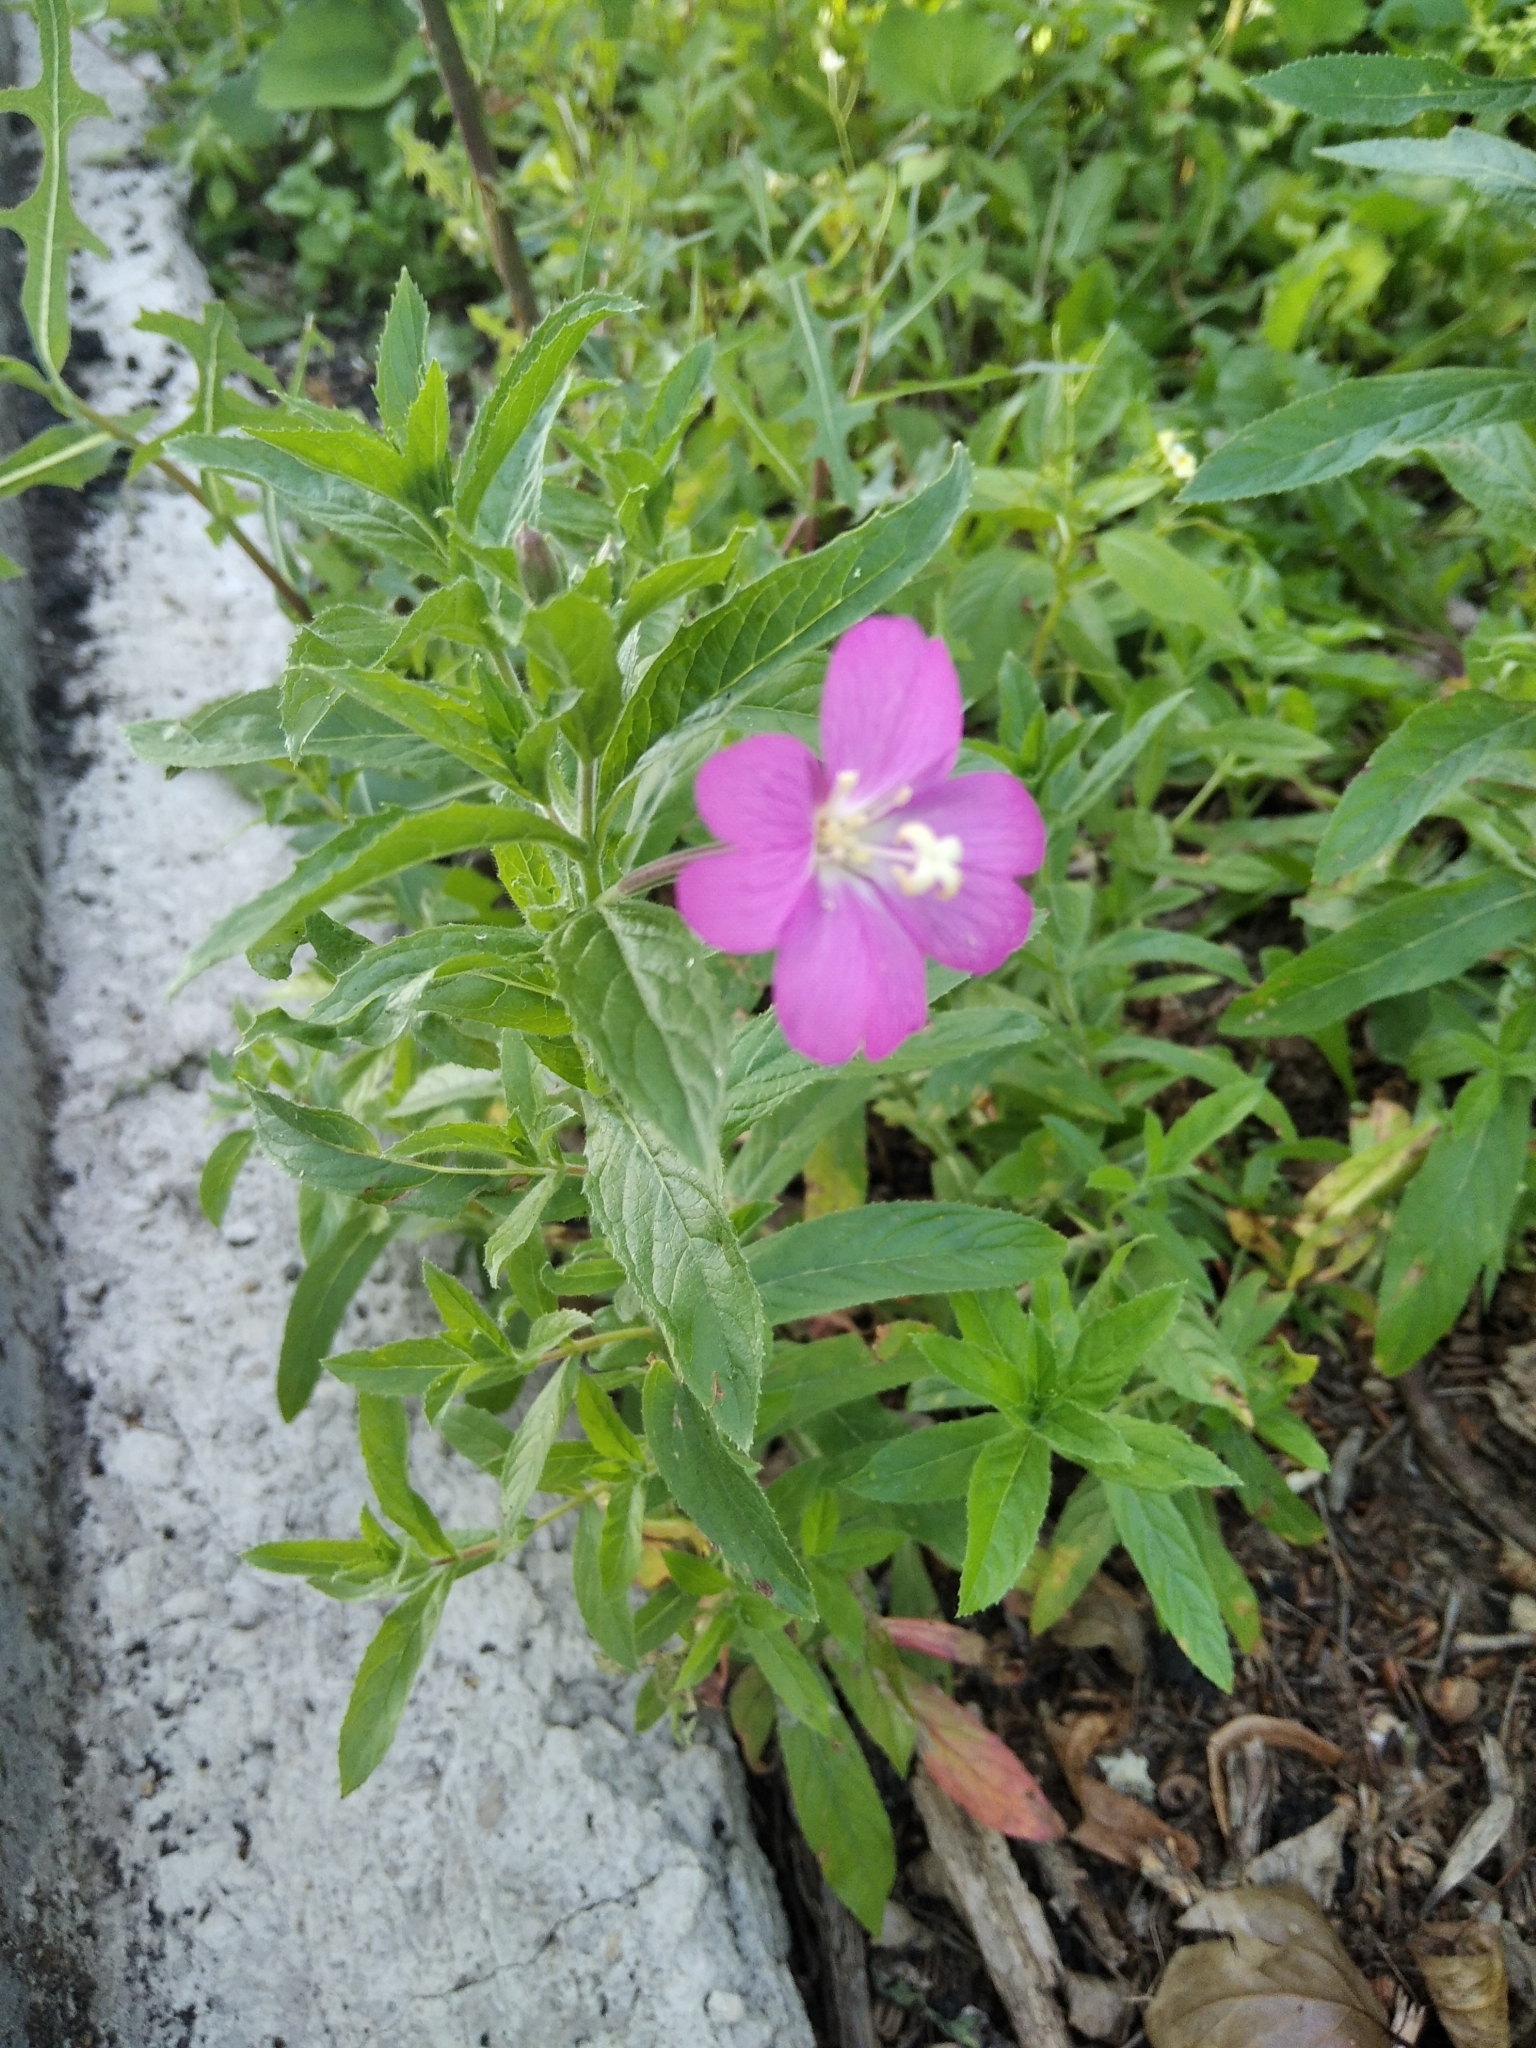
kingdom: Plantae
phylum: Tracheophyta
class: Magnoliopsida
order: Myrtales
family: Onagraceae
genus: Epilobium
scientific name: Epilobium hirsutum
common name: Great willowherb
